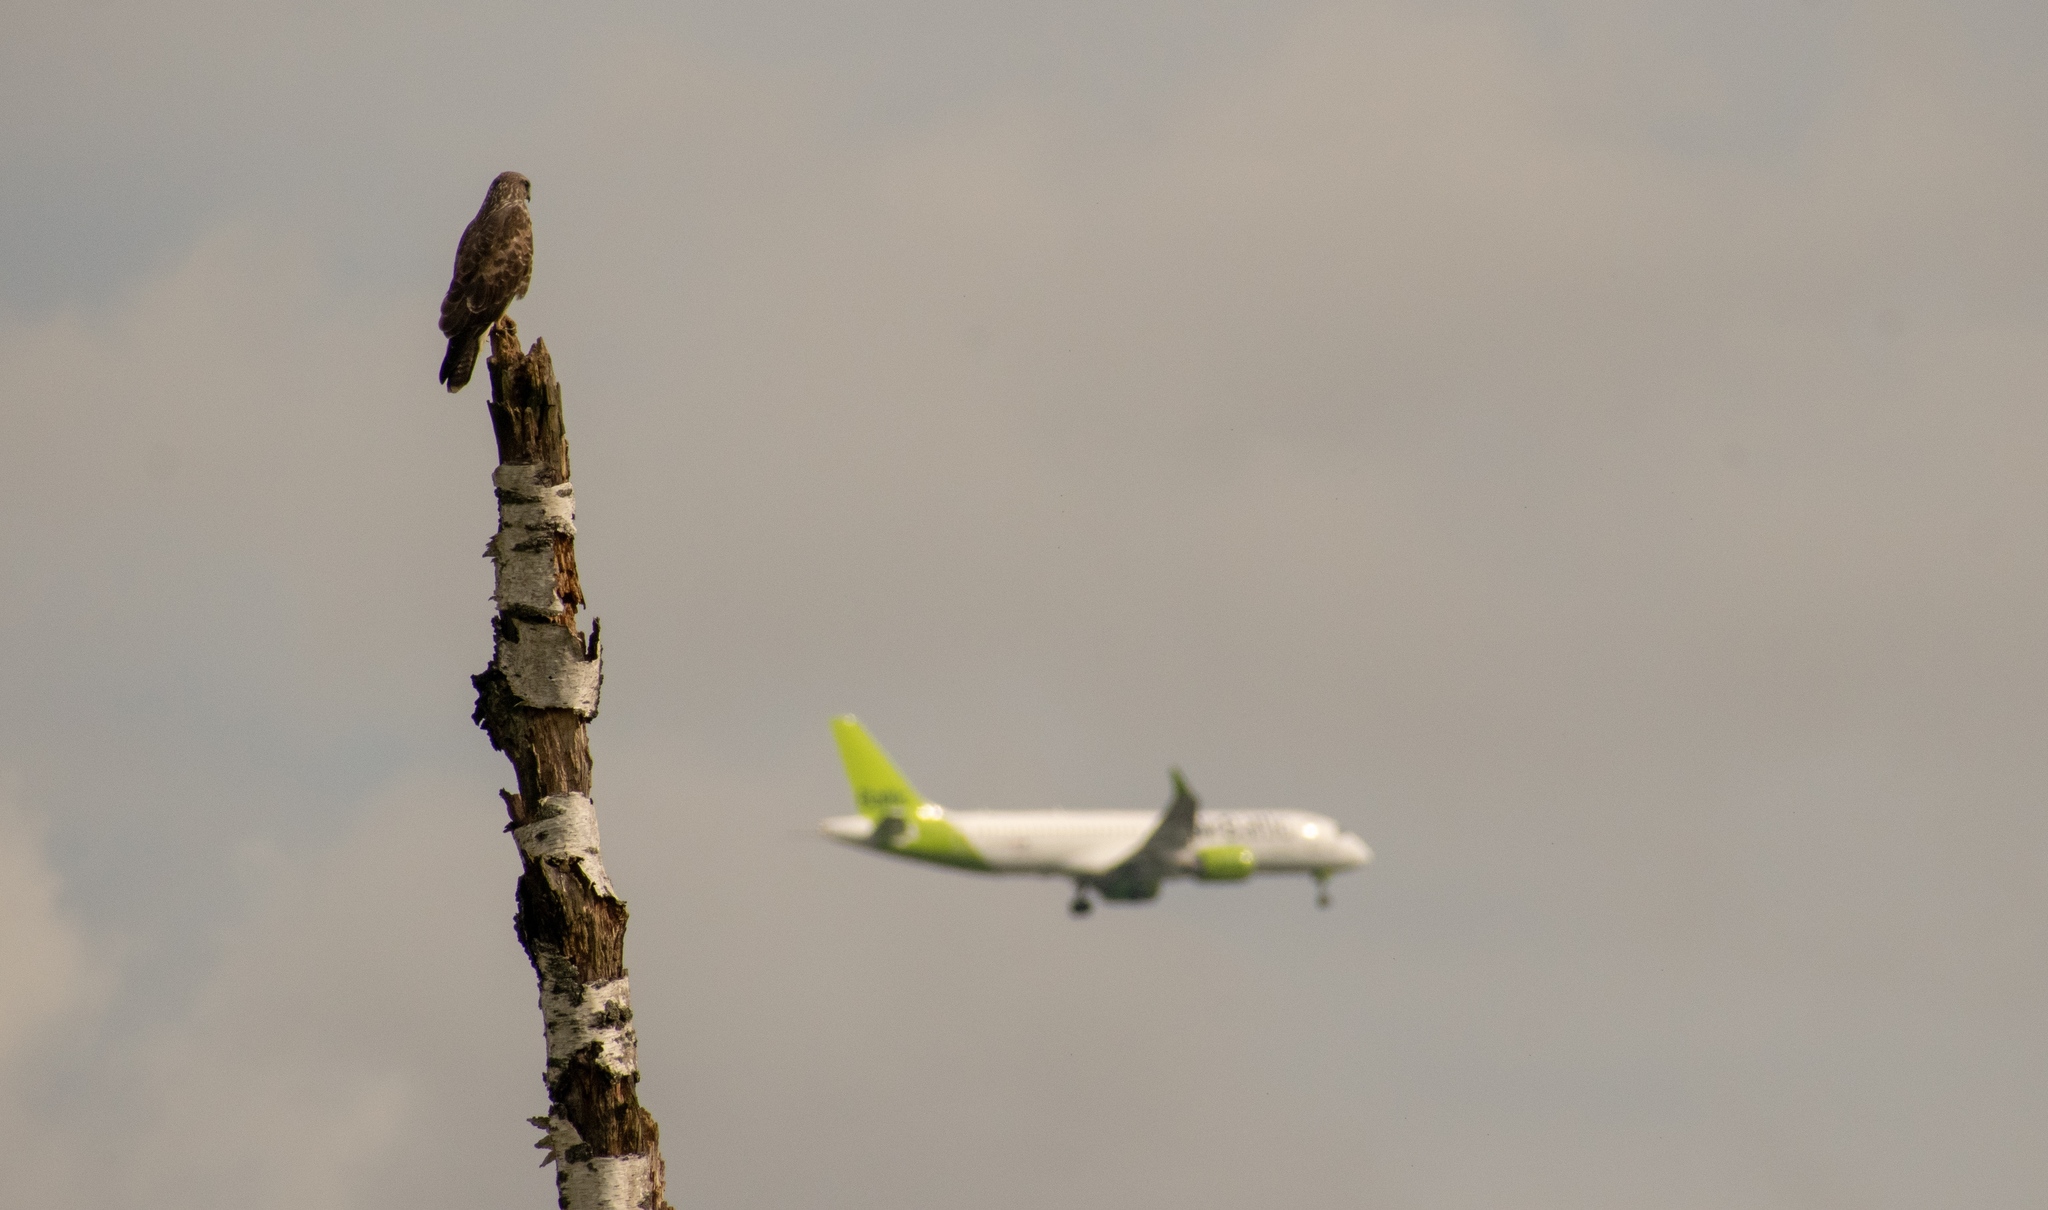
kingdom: Animalia
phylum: Chordata
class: Aves
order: Accipitriformes
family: Accipitridae
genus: Buteo
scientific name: Buteo buteo
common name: Common buzzard
